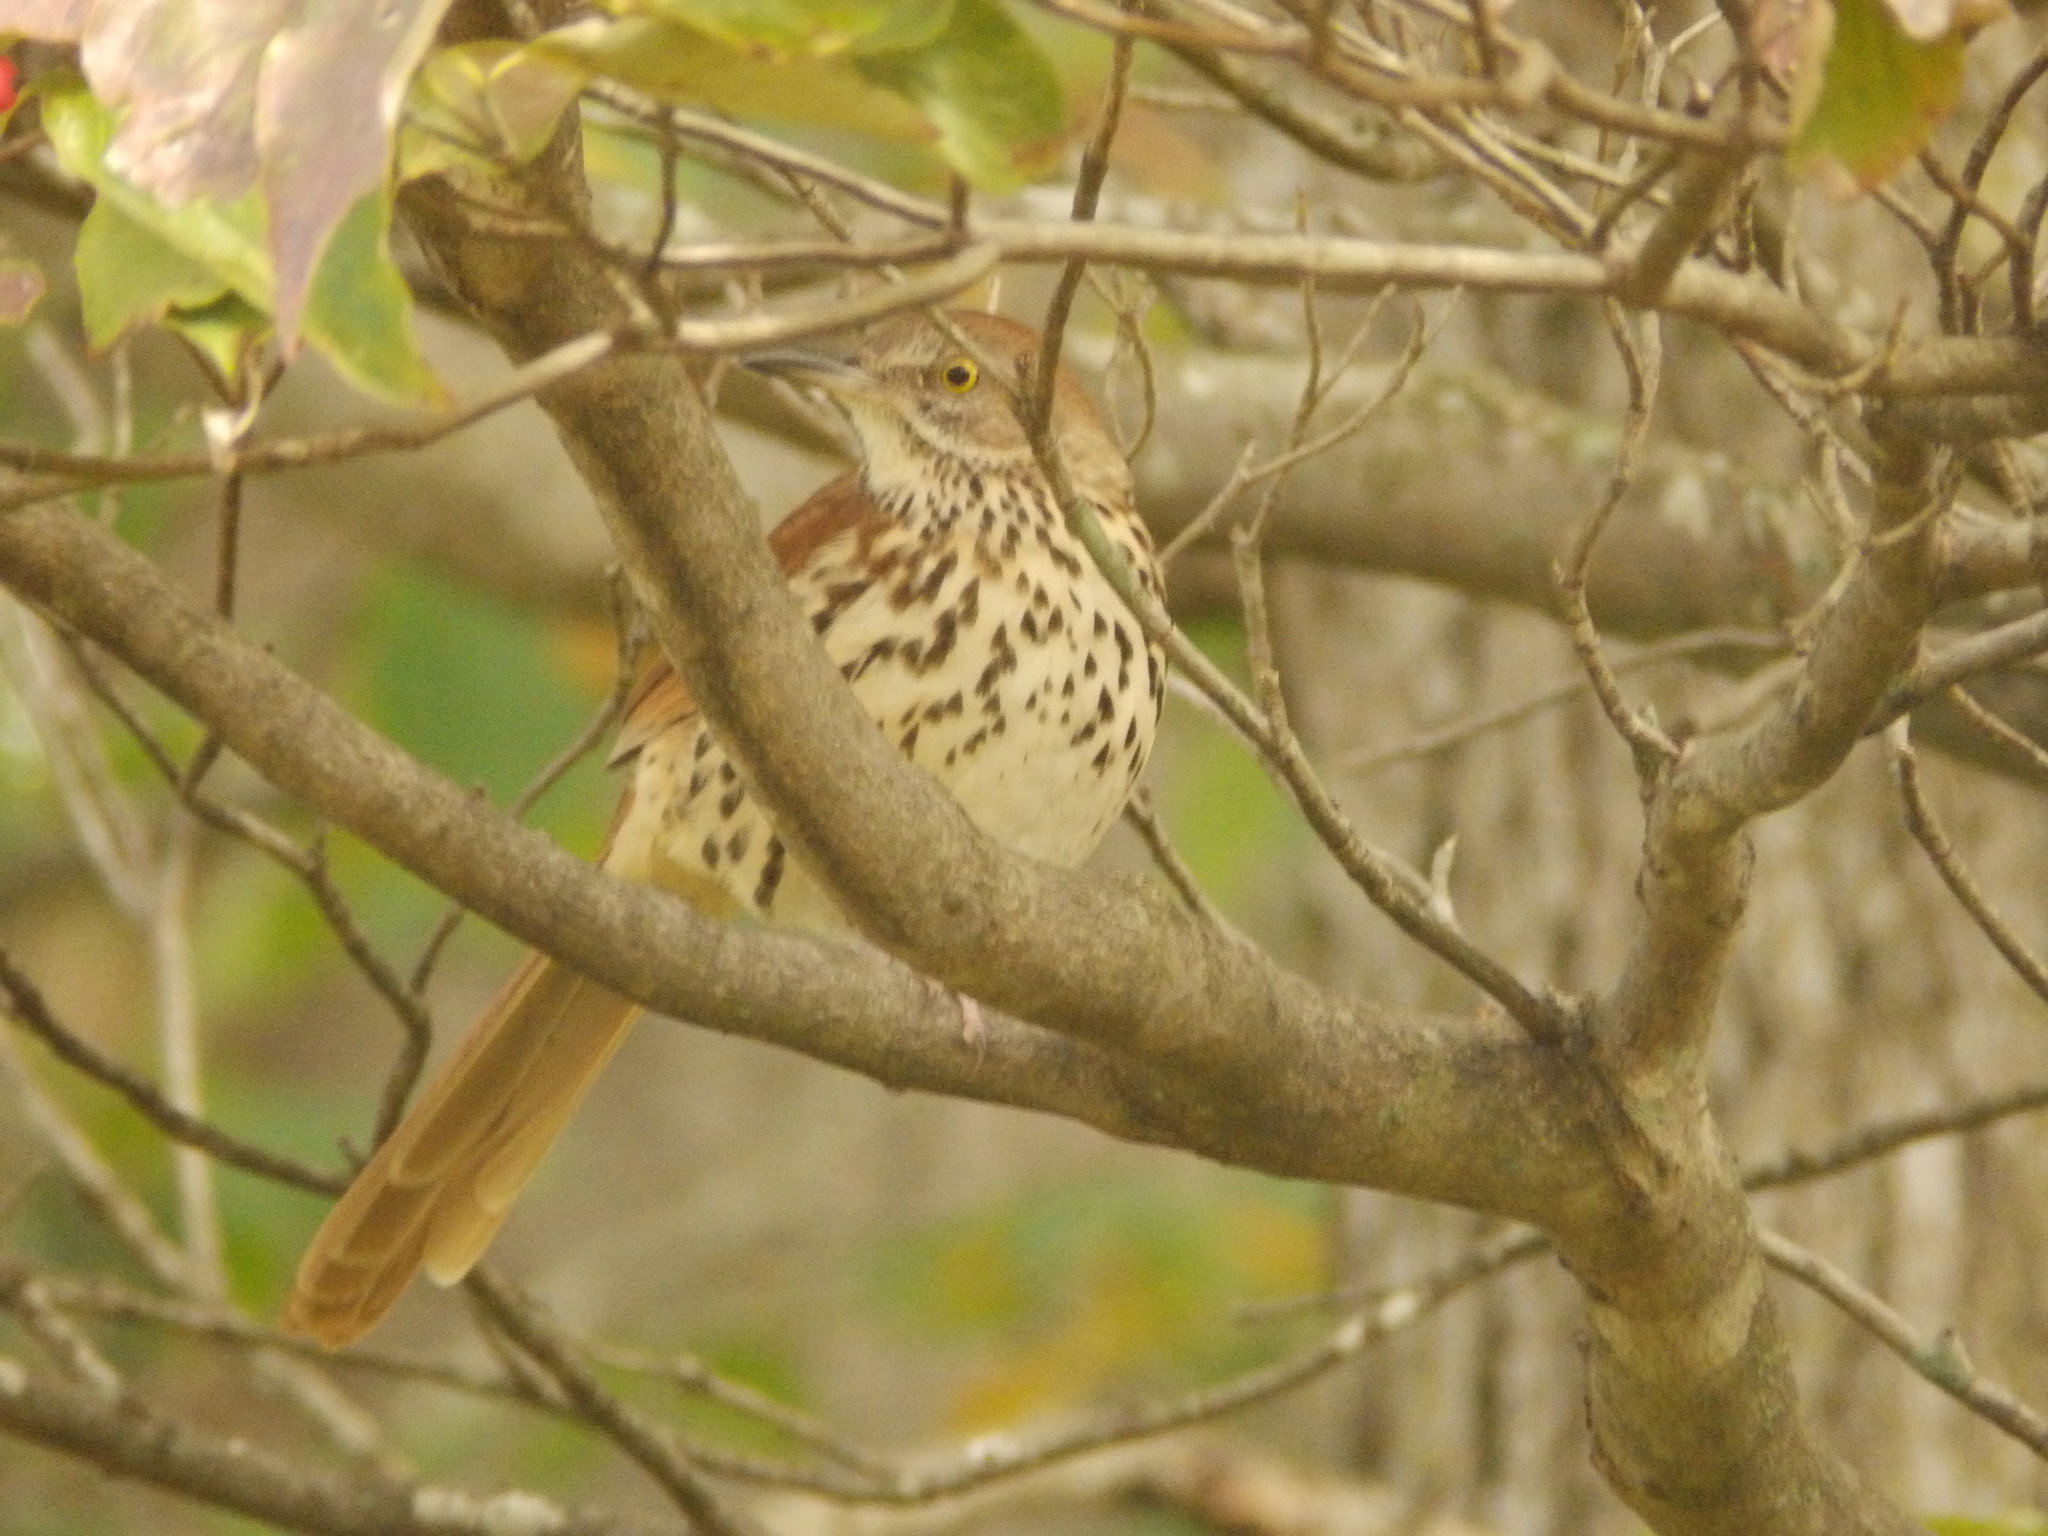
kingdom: Animalia
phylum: Chordata
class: Aves
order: Passeriformes
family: Mimidae
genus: Toxostoma
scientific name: Toxostoma rufum
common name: Brown thrasher
